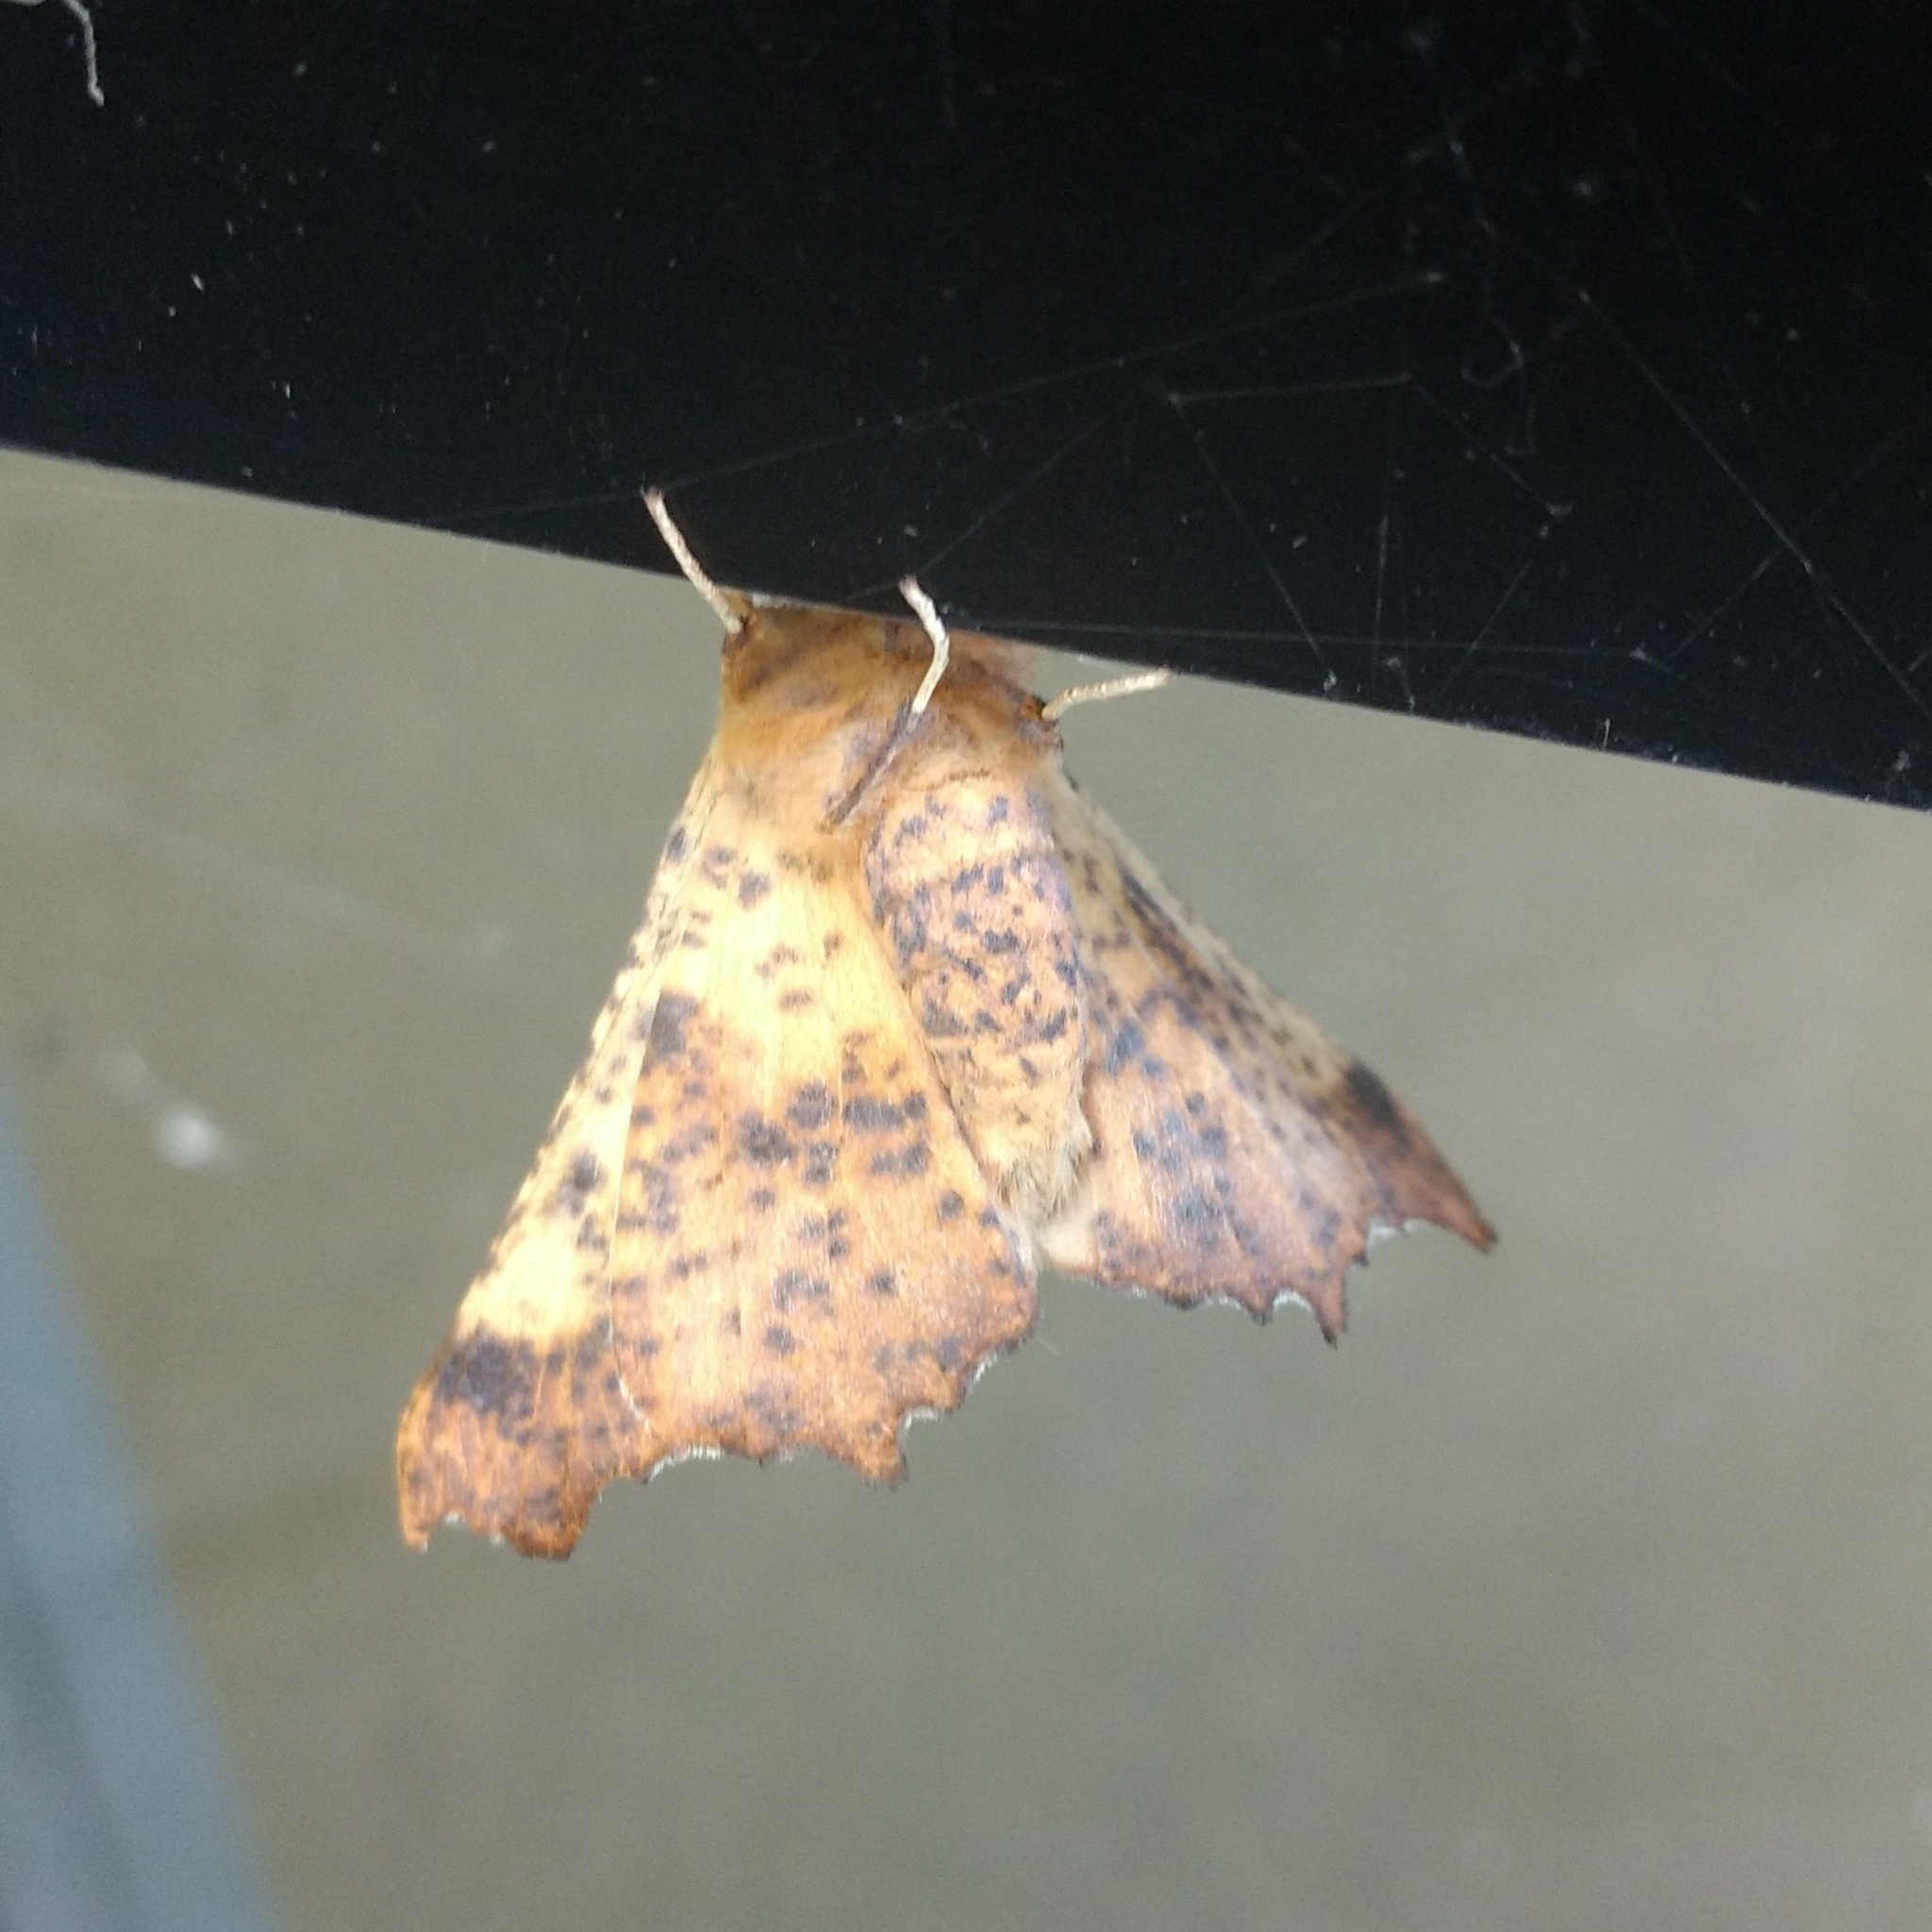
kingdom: Animalia
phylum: Arthropoda
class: Insecta
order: Lepidoptera
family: Geometridae
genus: Ennomos
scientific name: Ennomos magnaria
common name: Maple spanworm
